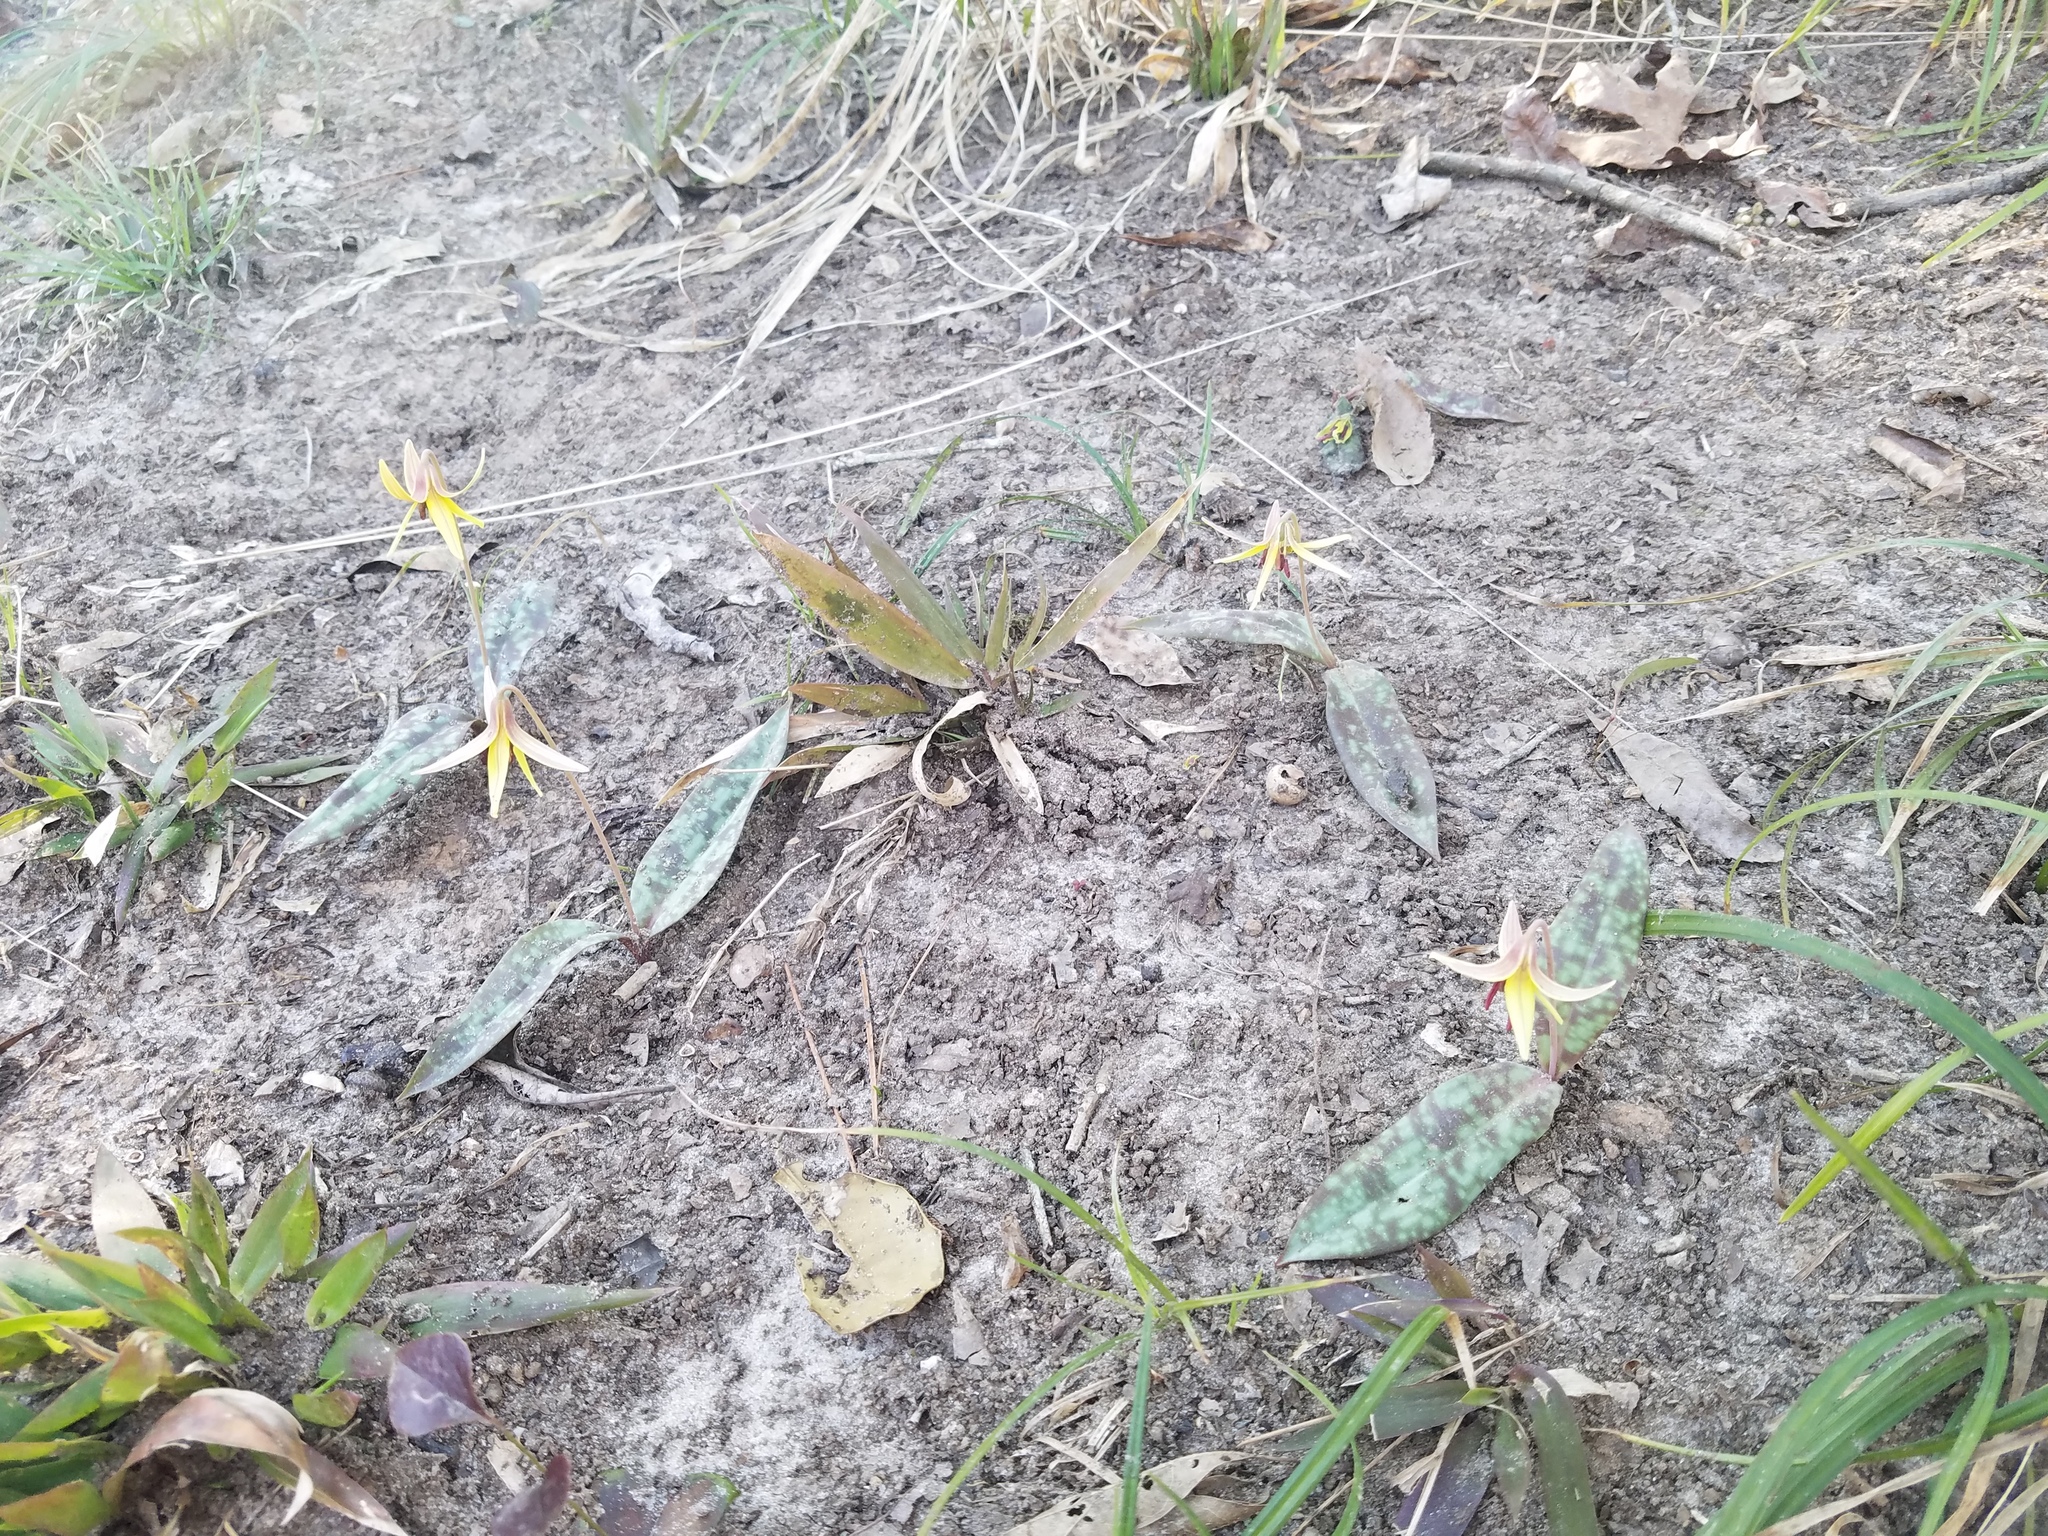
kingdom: Plantae
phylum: Tracheophyta
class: Liliopsida
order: Liliales
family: Liliaceae
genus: Erythronium
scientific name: Erythronium umbilicatum
